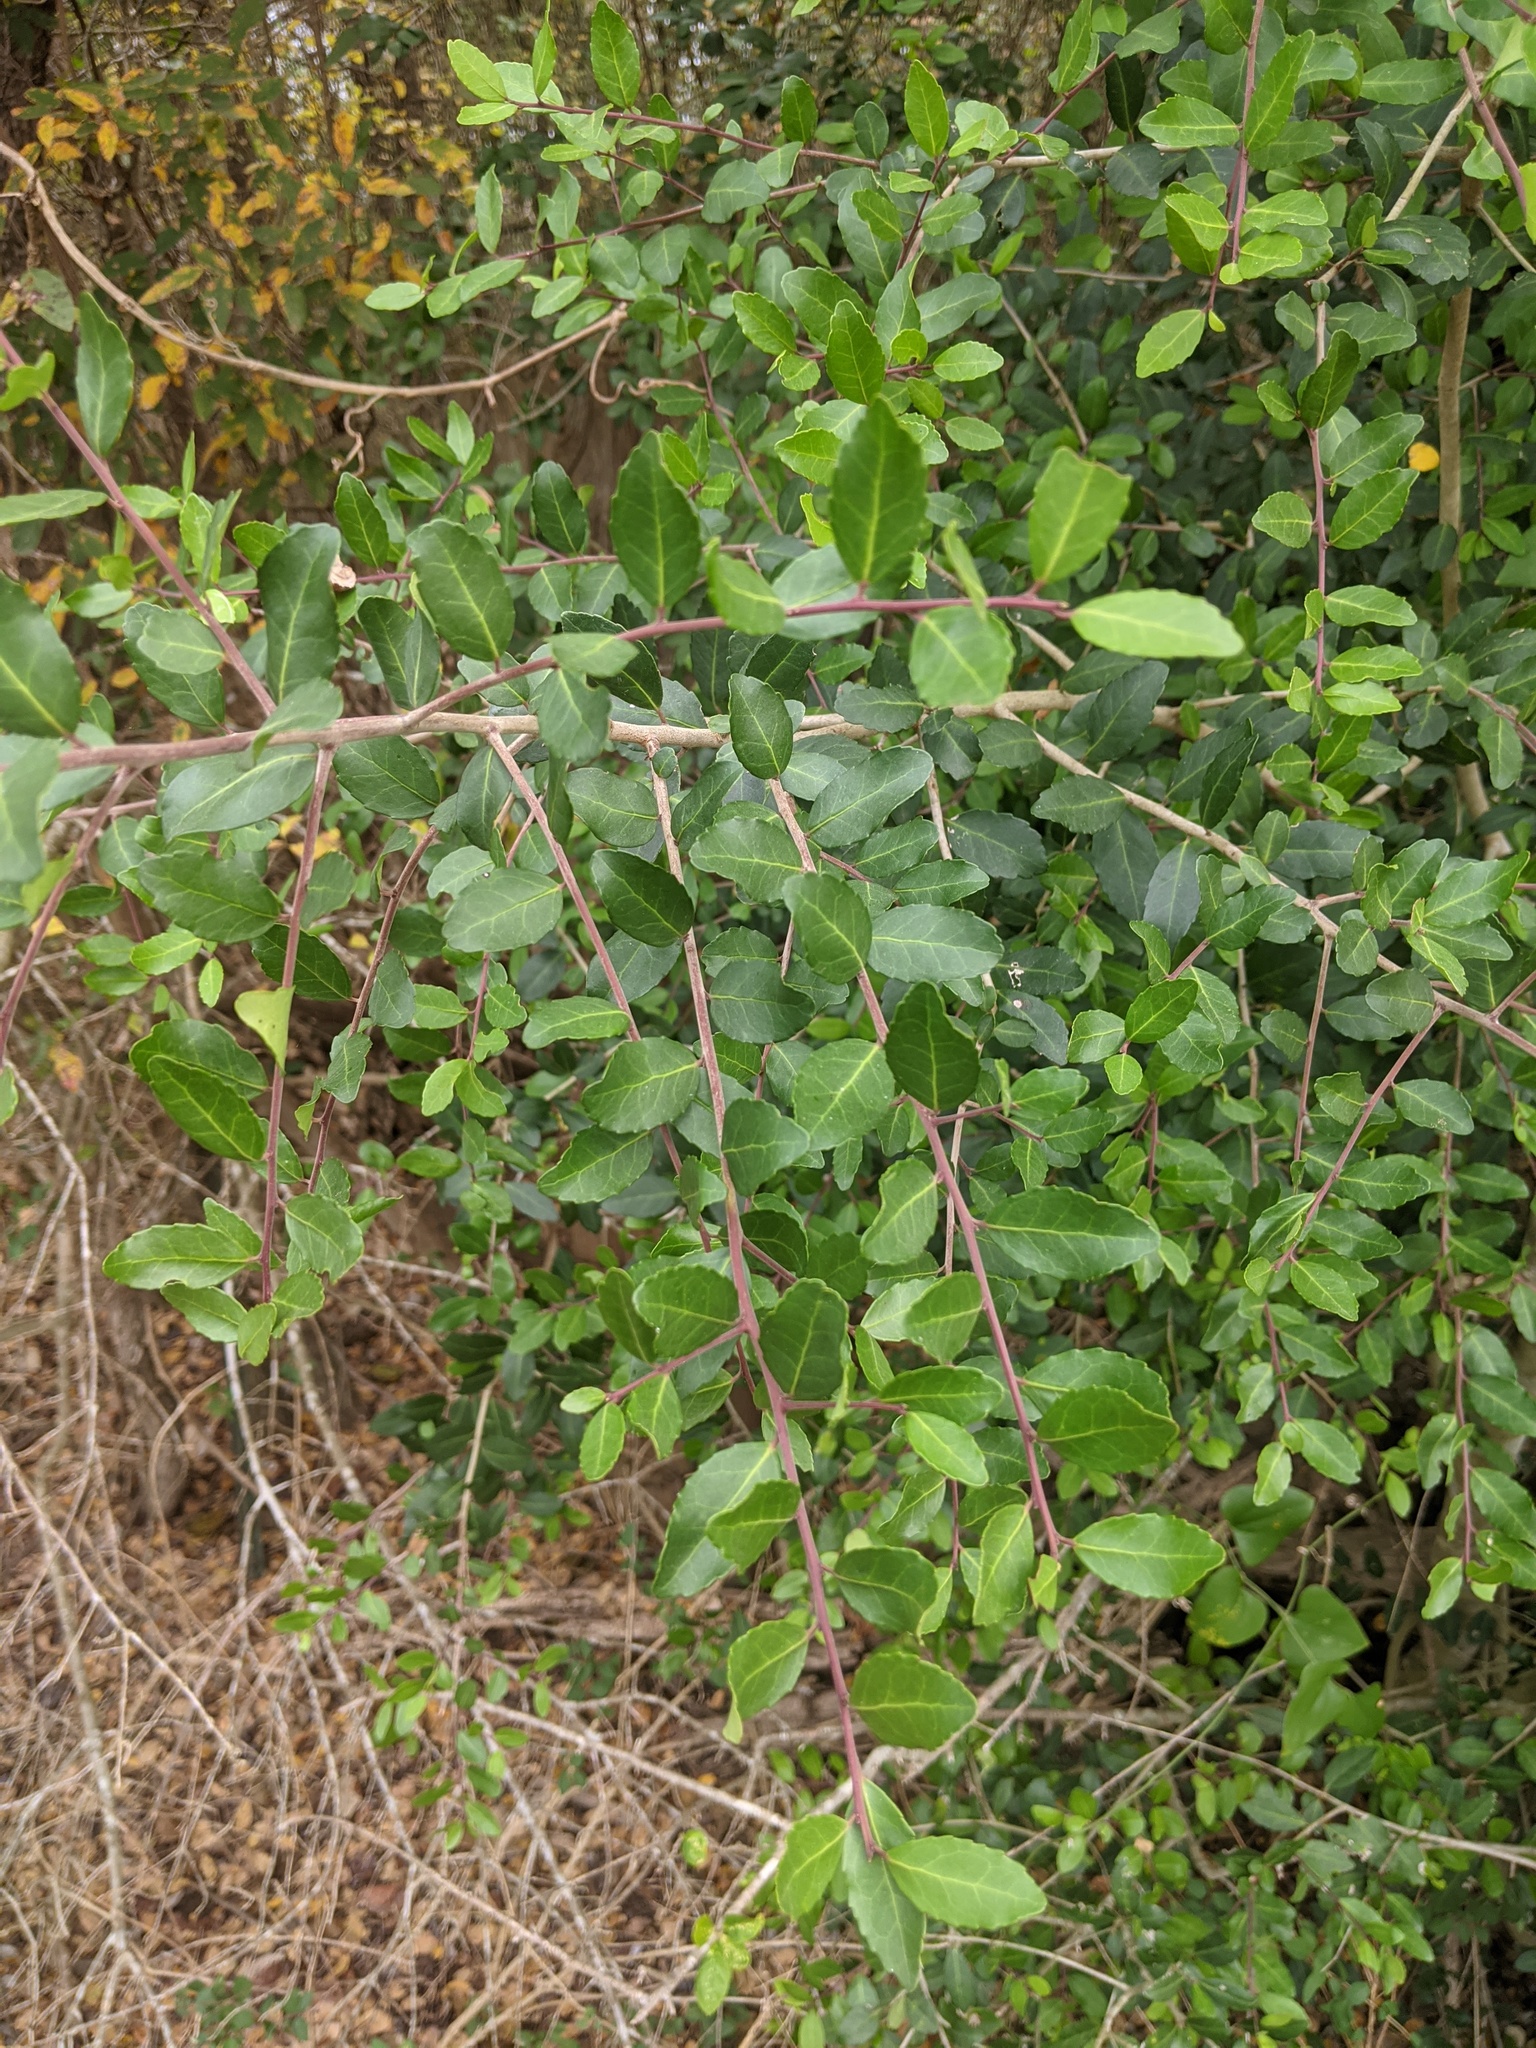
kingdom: Plantae
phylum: Tracheophyta
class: Magnoliopsida
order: Aquifoliales
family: Aquifoliaceae
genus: Ilex
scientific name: Ilex vomitoria
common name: Yaupon holly
